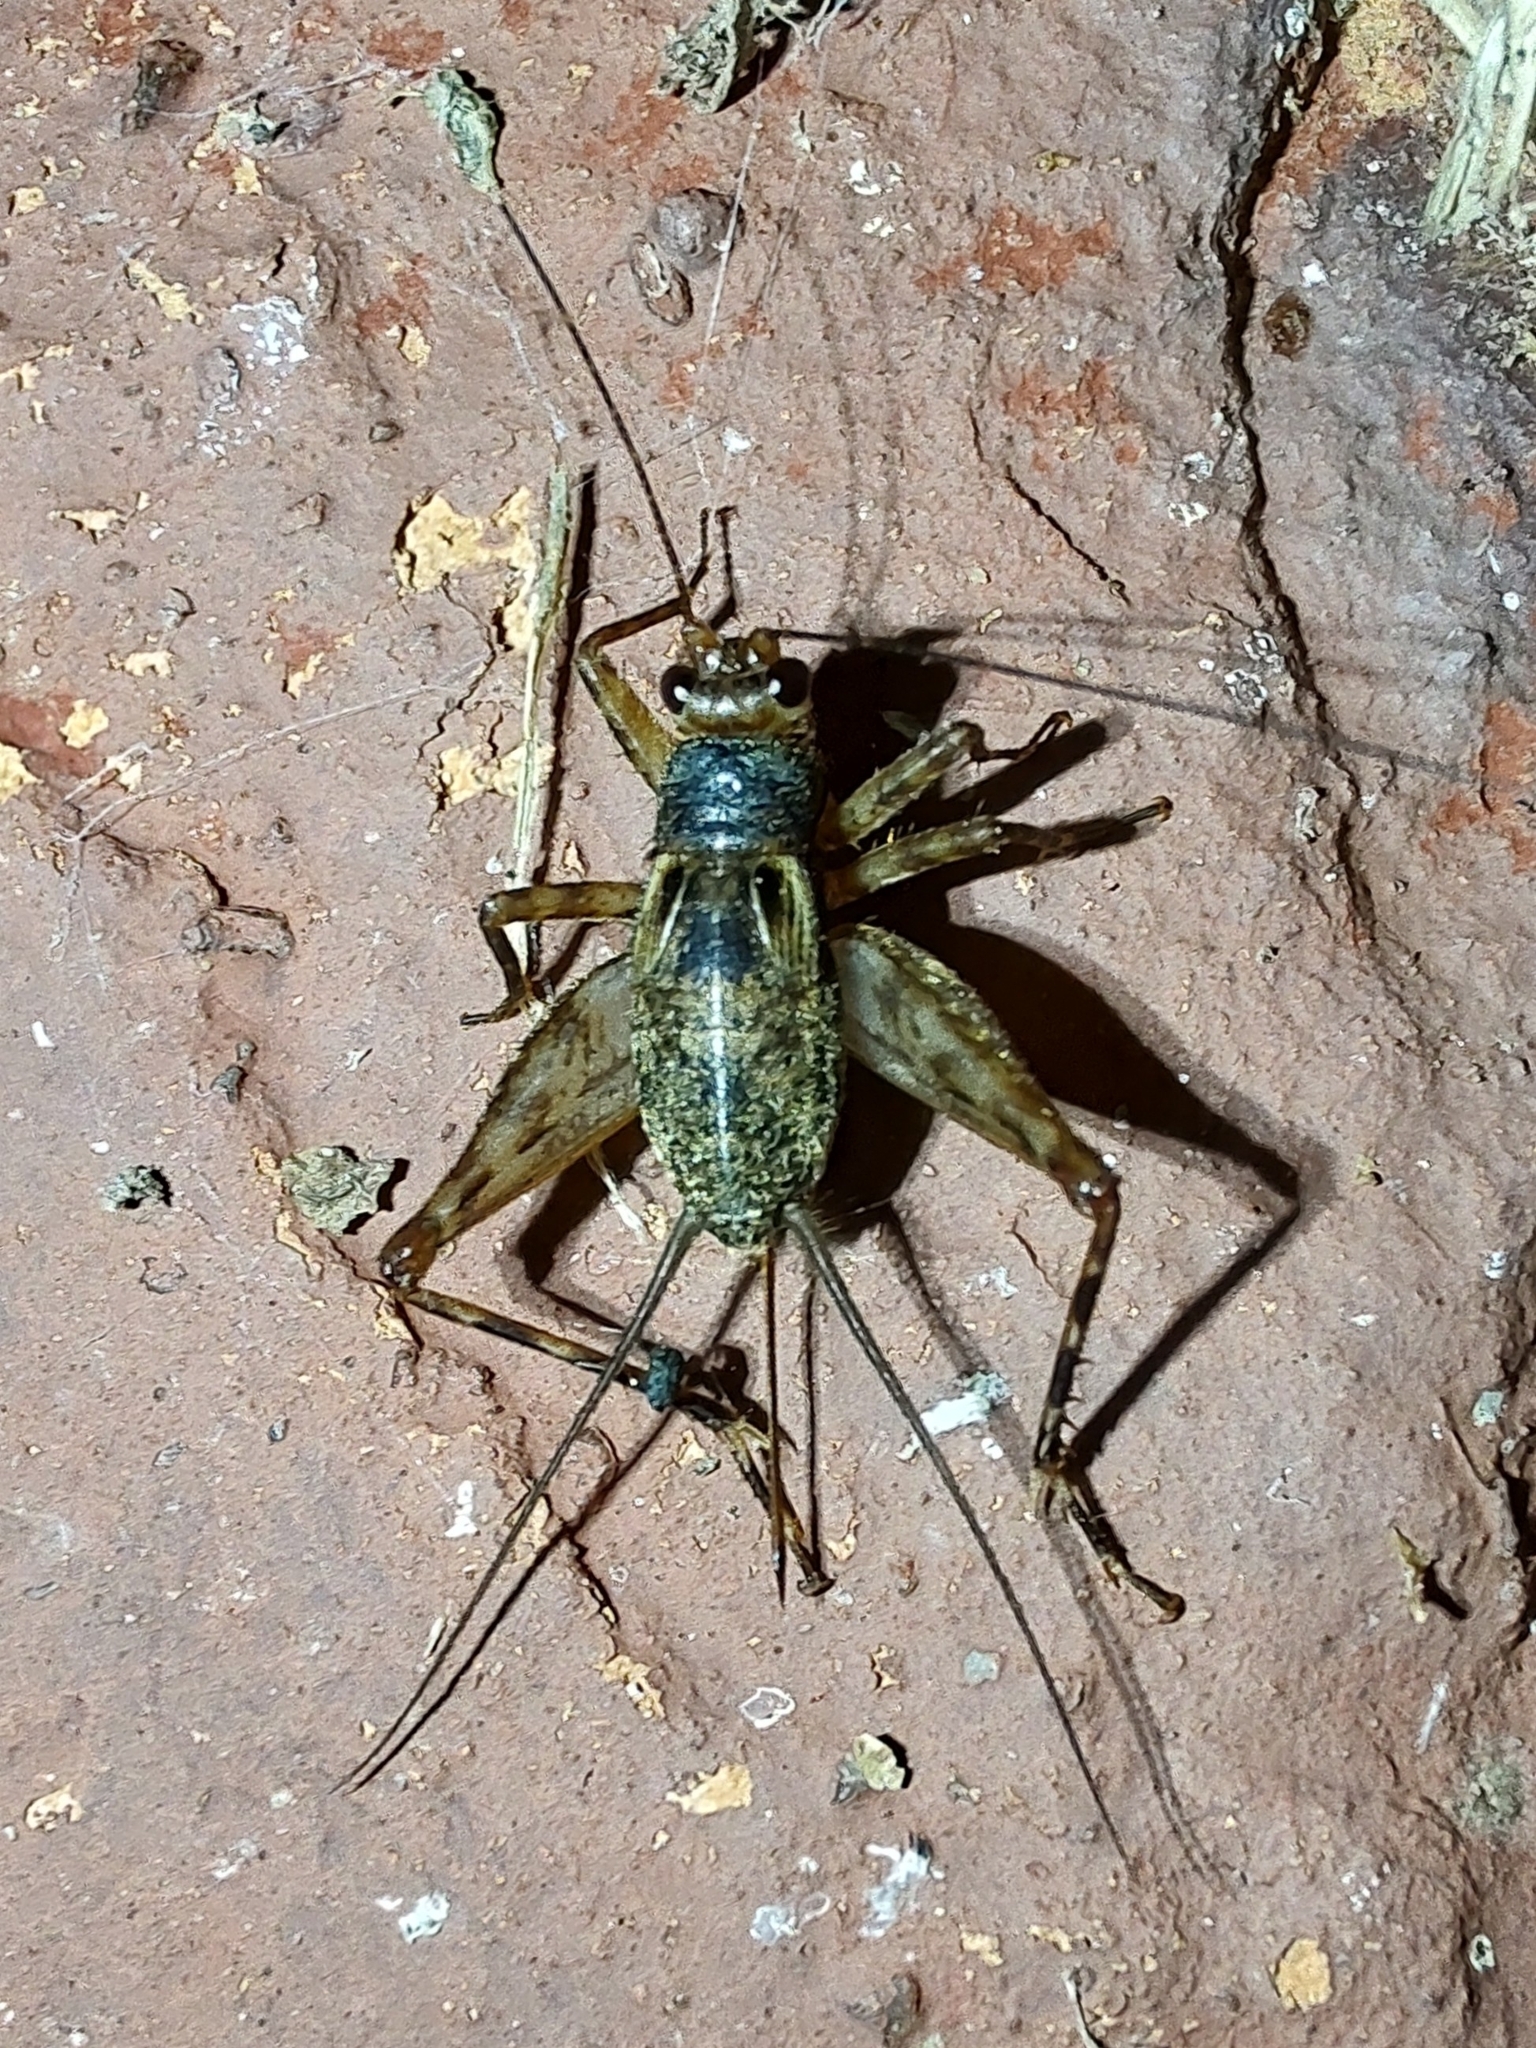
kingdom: Animalia
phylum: Arthropoda
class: Insecta
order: Orthoptera
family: Phalangopsidae
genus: Ubiquepuella
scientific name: Ubiquepuella telytokous
